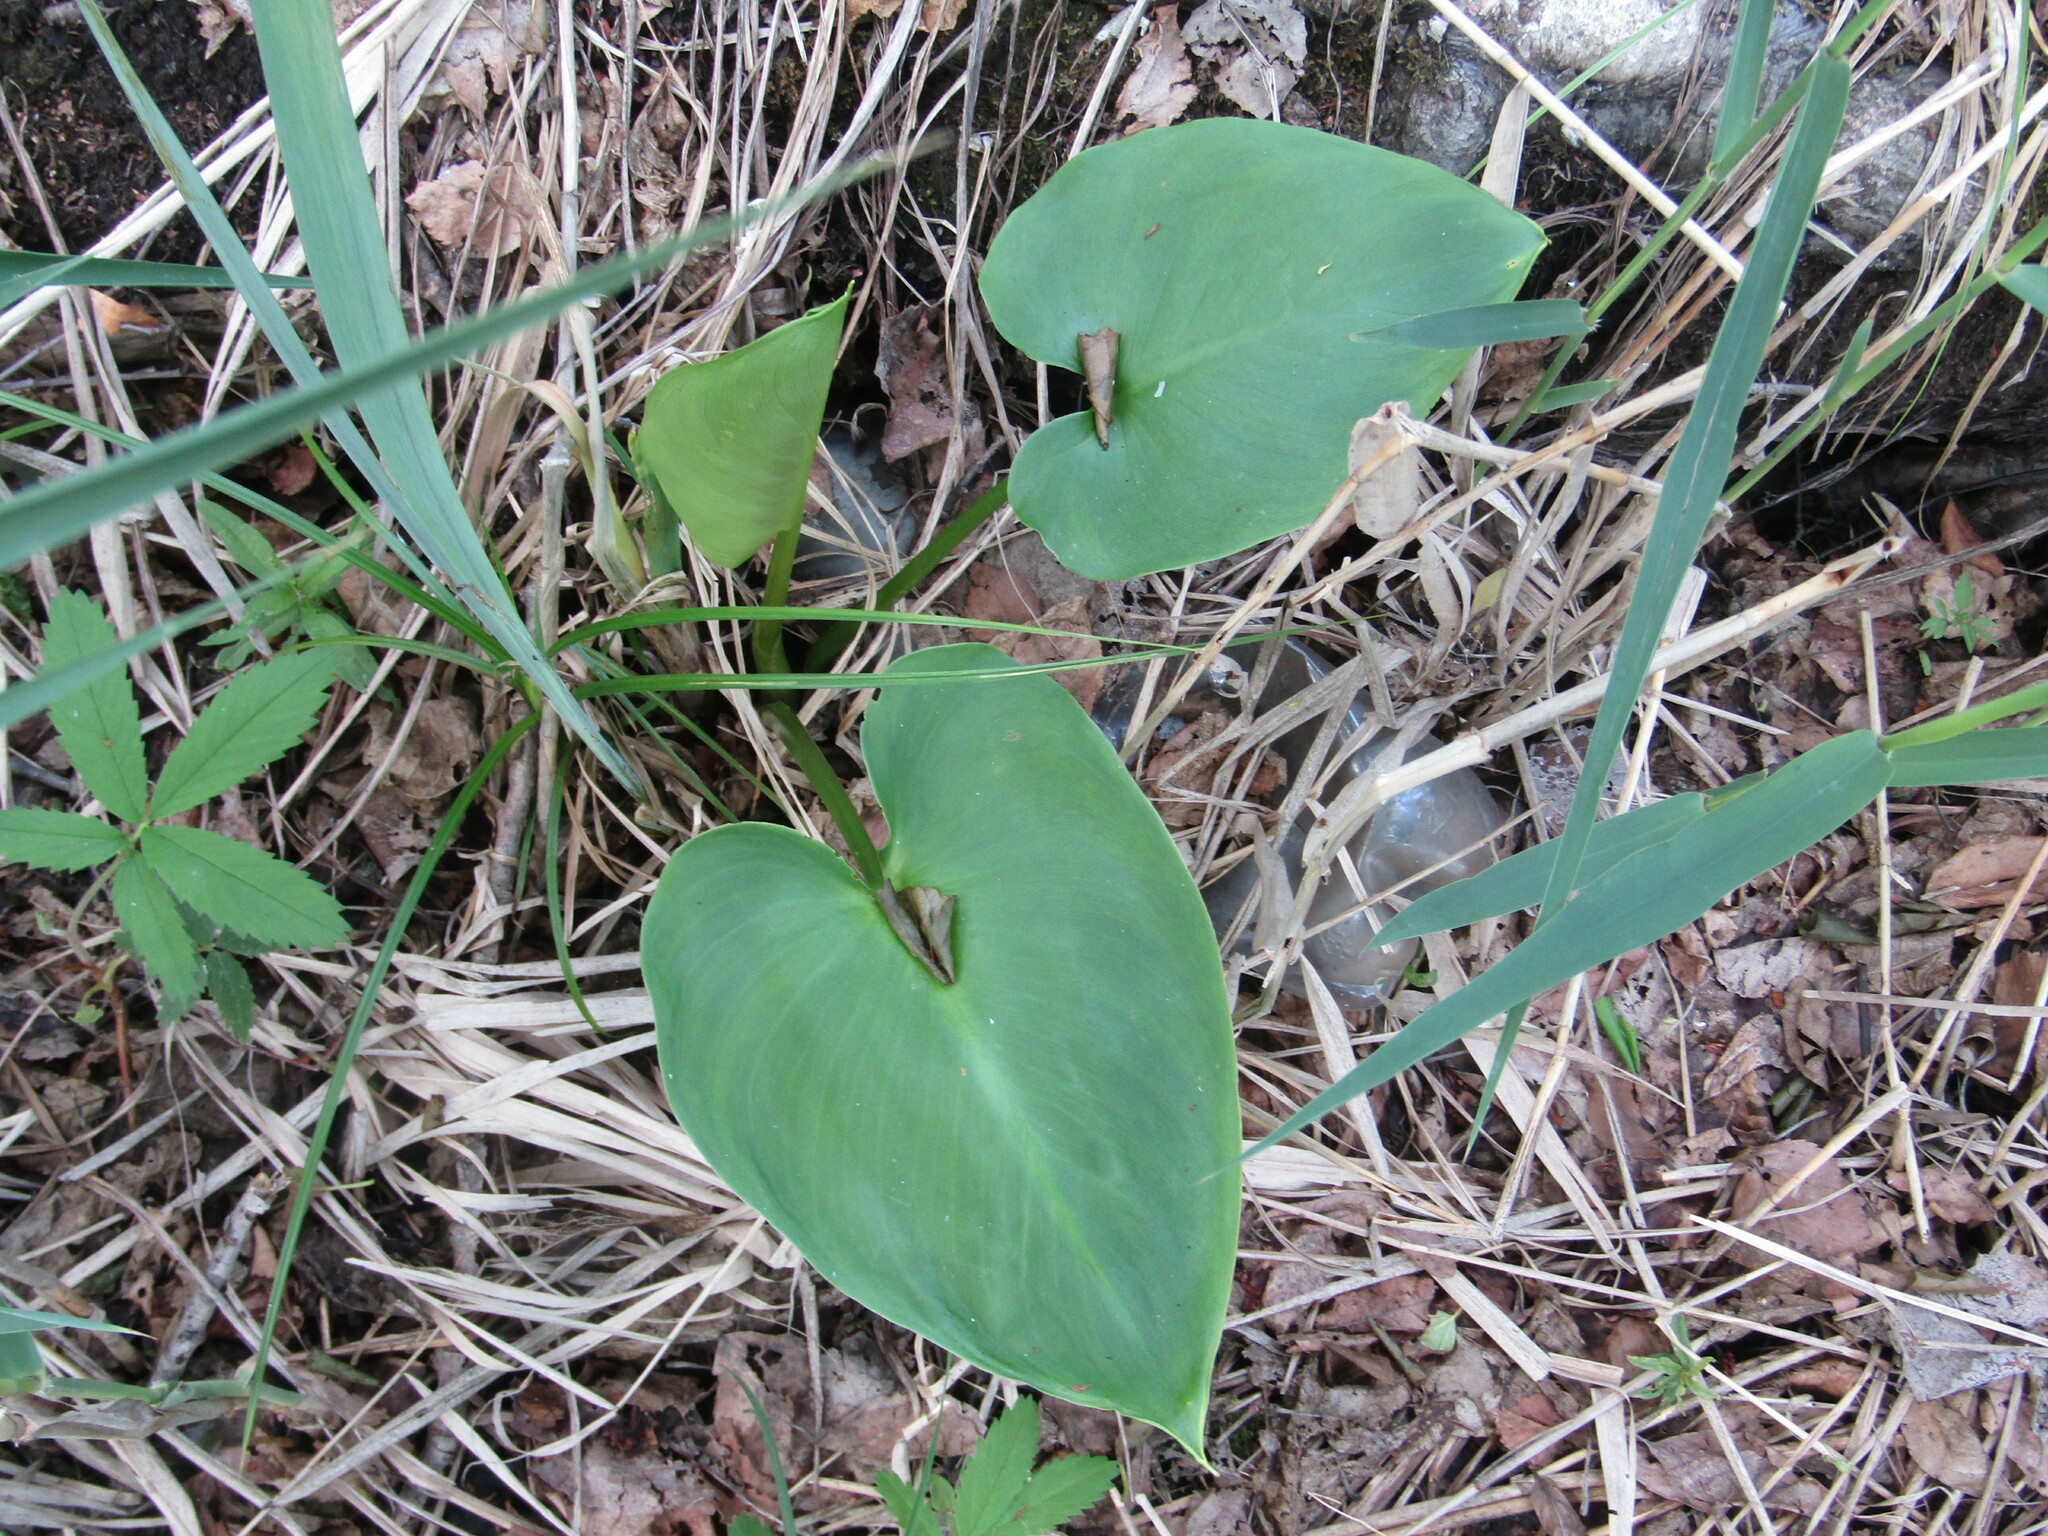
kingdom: Plantae
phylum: Tracheophyta
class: Liliopsida
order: Alismatales
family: Araceae
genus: Calla
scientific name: Calla palustris
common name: Bog arum
